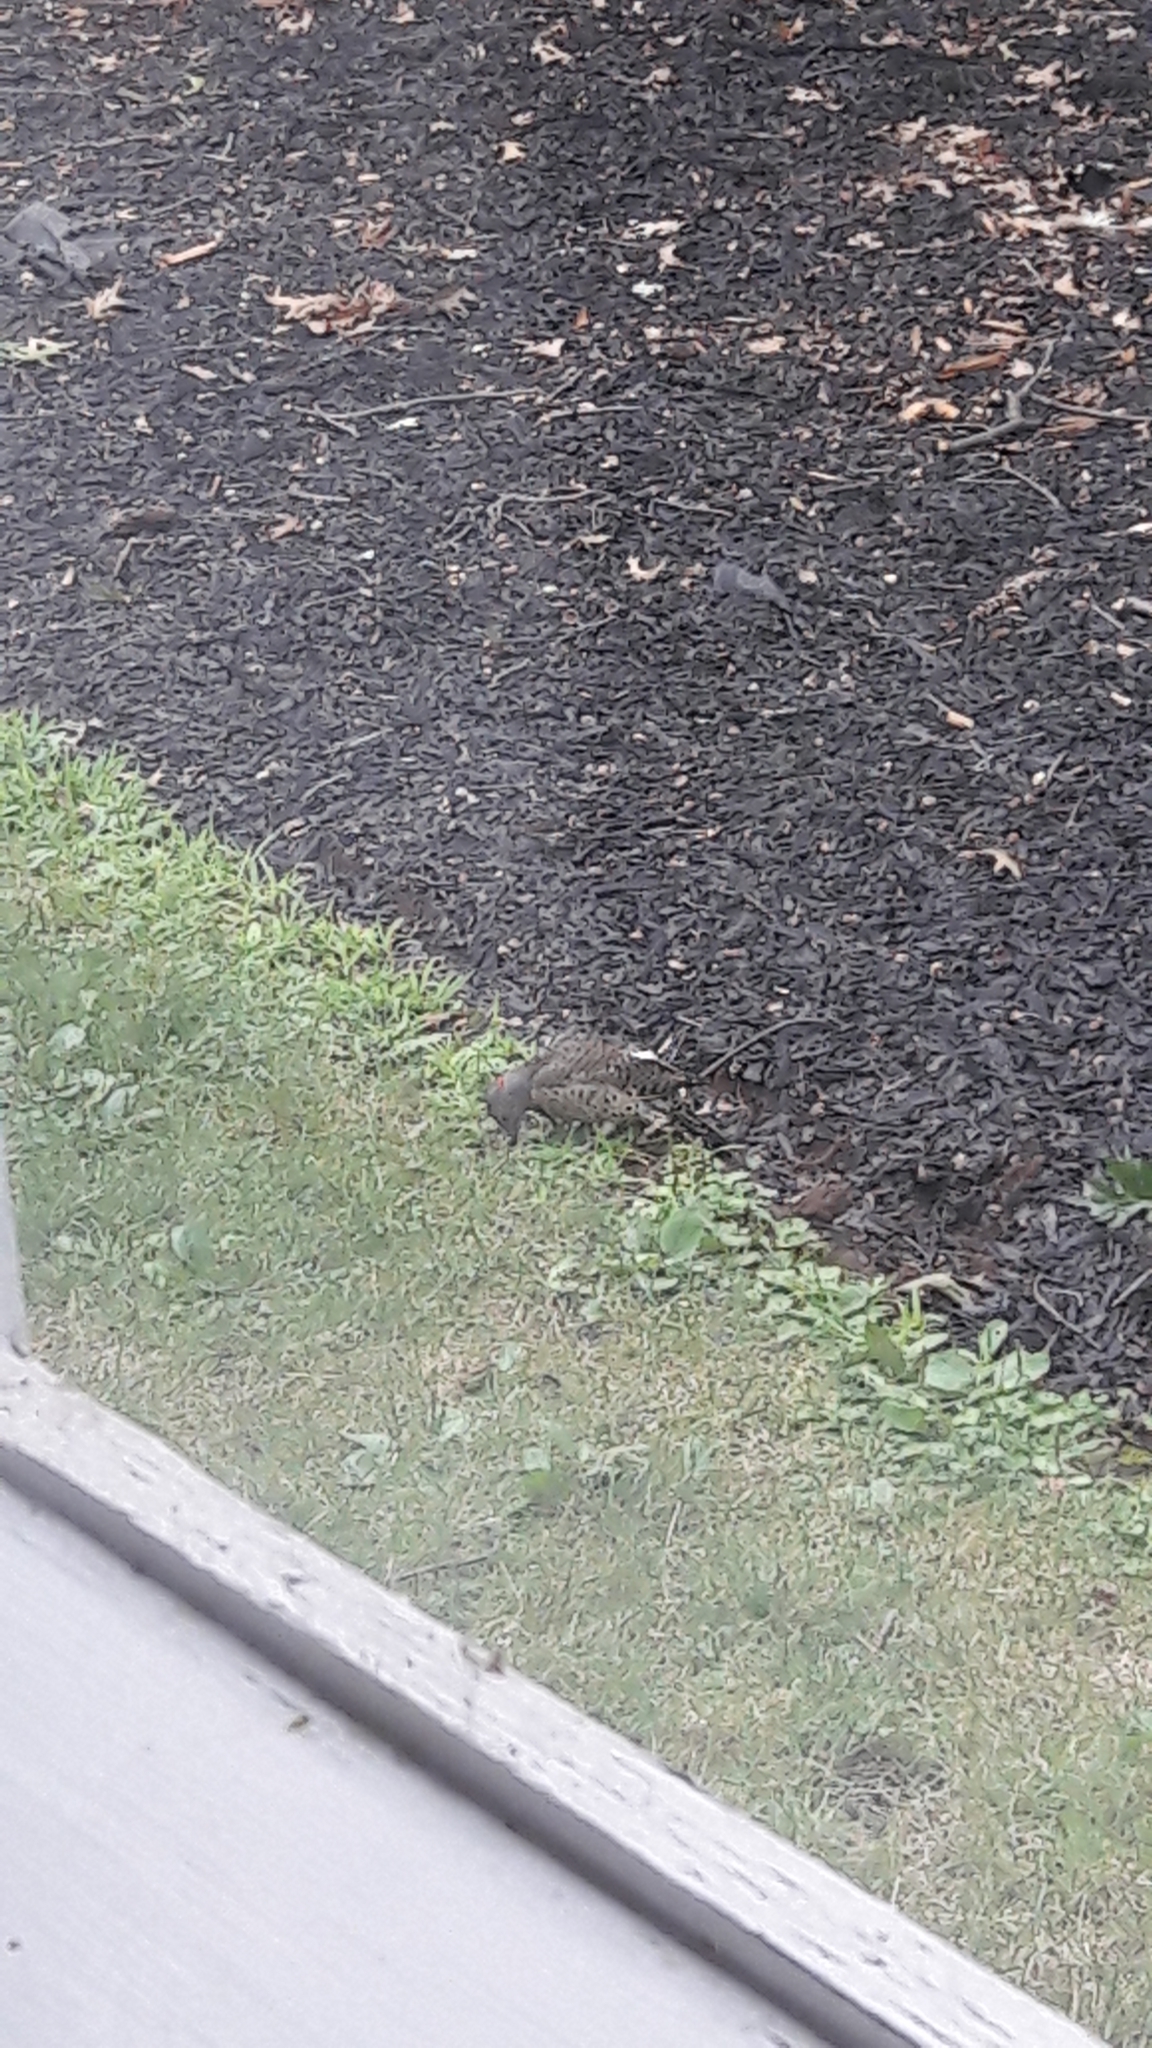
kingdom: Animalia
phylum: Chordata
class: Aves
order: Piciformes
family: Picidae
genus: Colaptes
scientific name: Colaptes auratus
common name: Northern flicker
